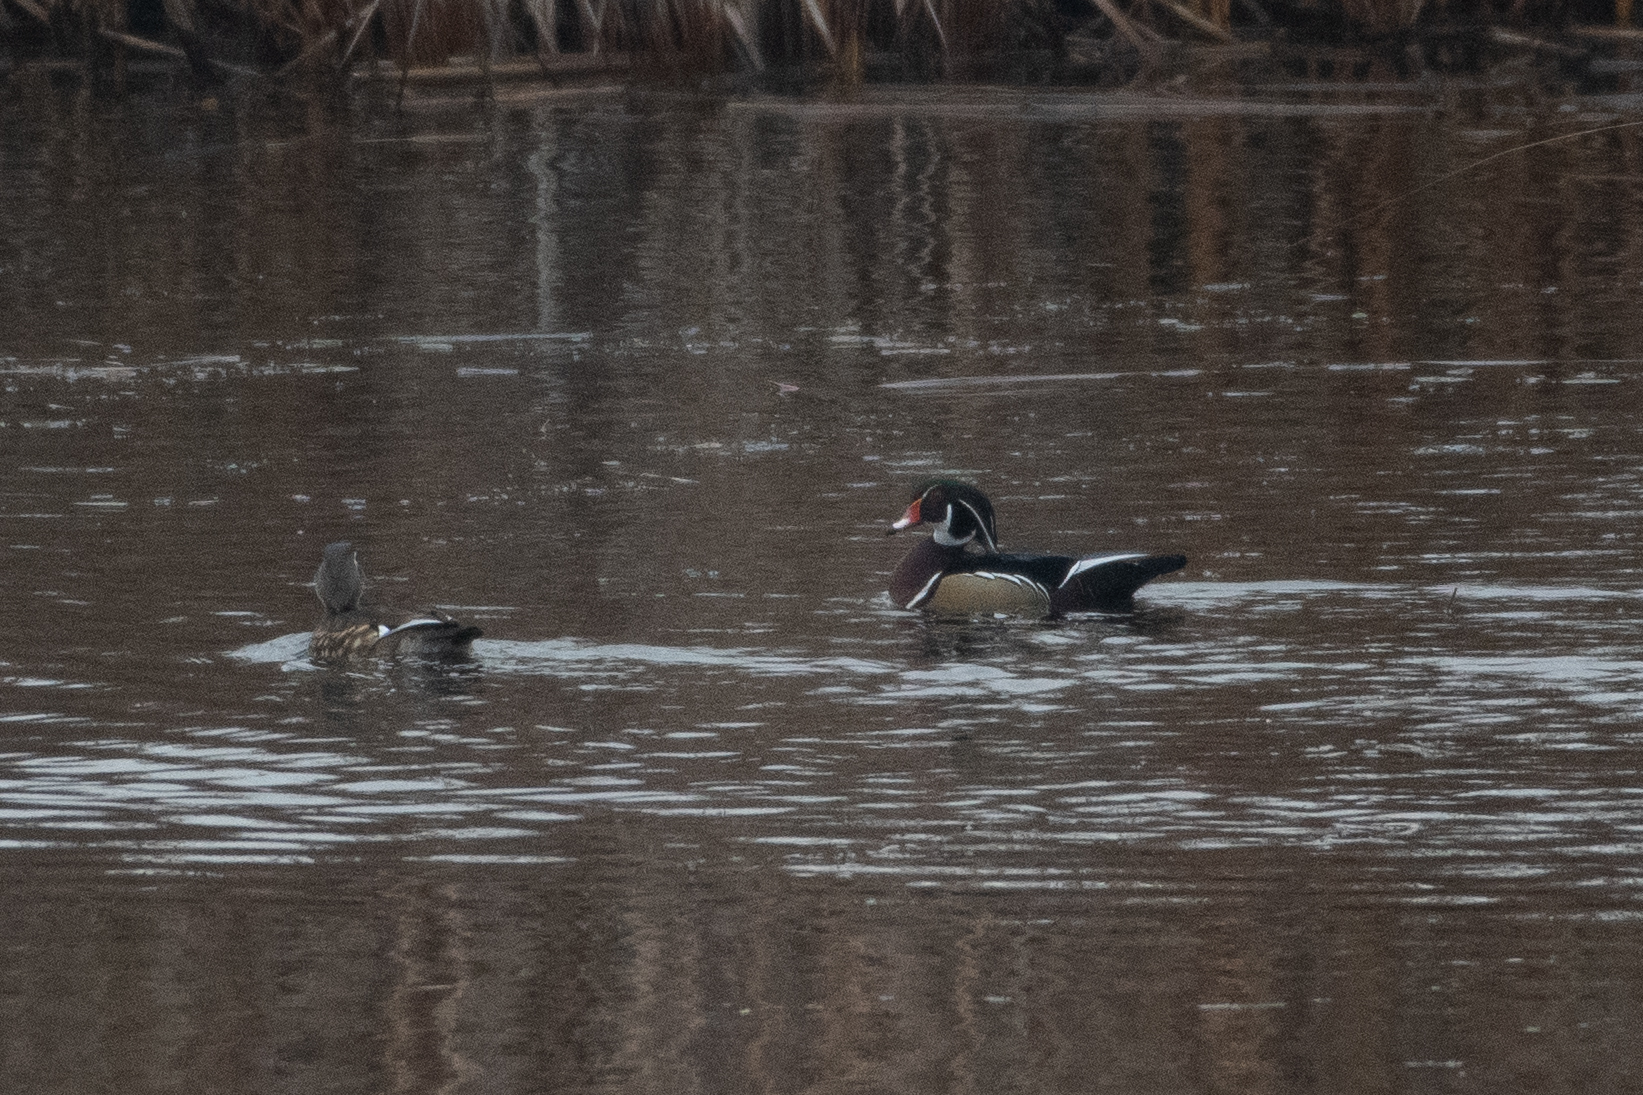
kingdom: Animalia
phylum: Chordata
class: Aves
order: Anseriformes
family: Anatidae
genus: Aix
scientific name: Aix sponsa
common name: Wood duck
